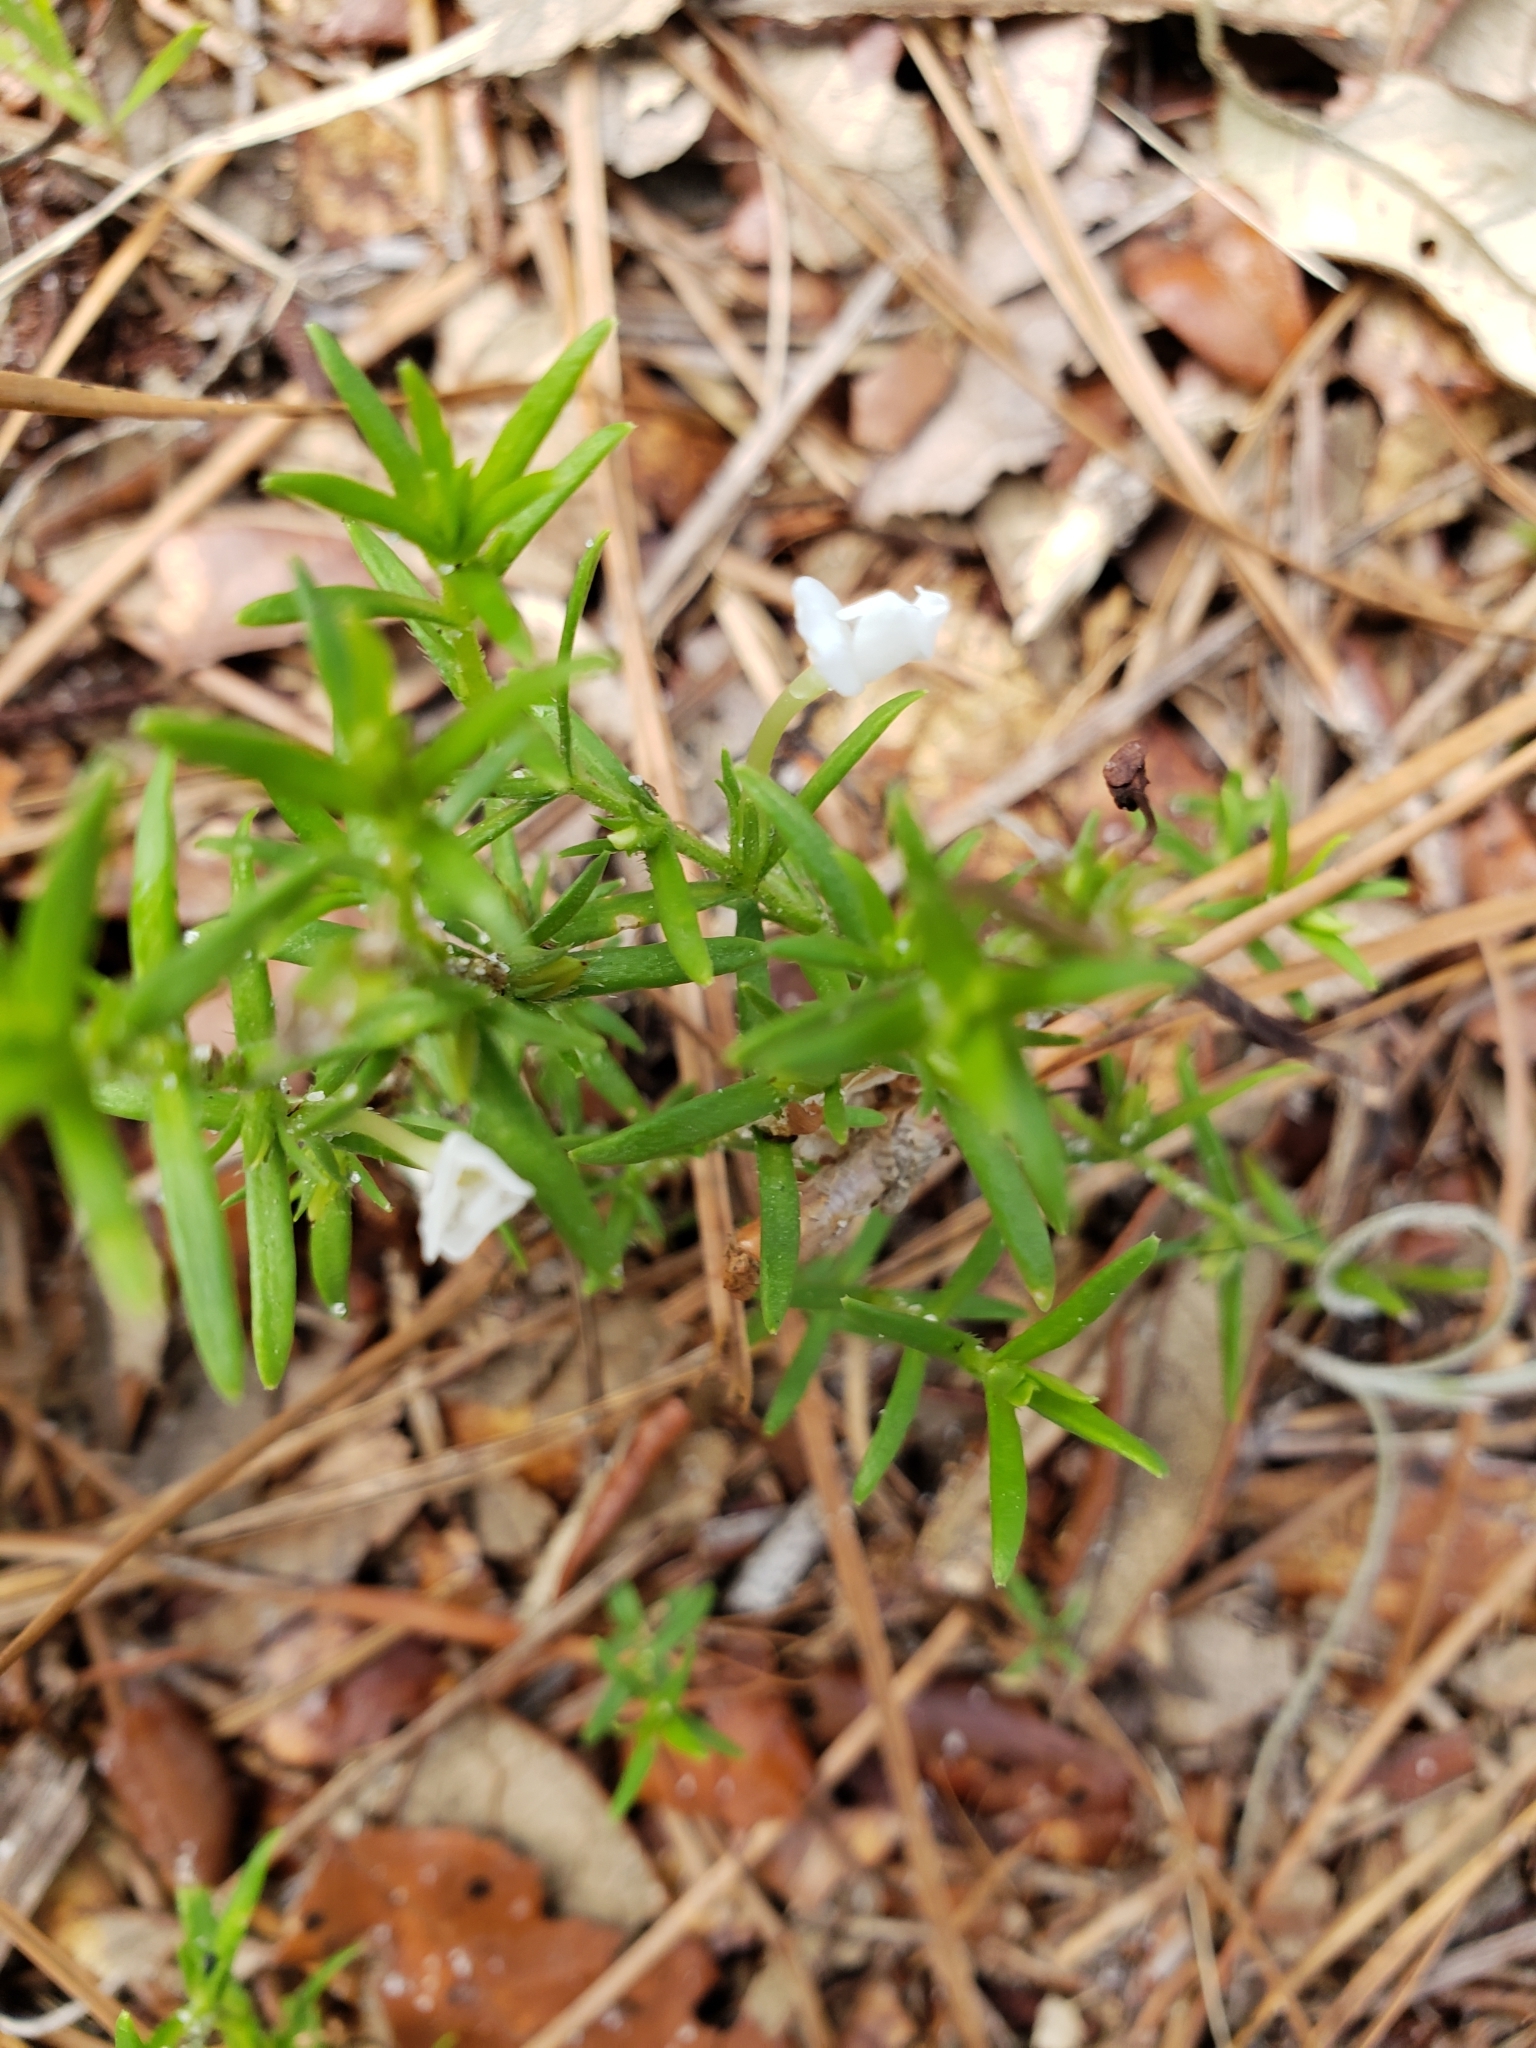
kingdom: Plantae
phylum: Tracheophyta
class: Magnoliopsida
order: Lamiales
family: Plantaginaceae
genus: Gratiola
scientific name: Gratiola hispida
